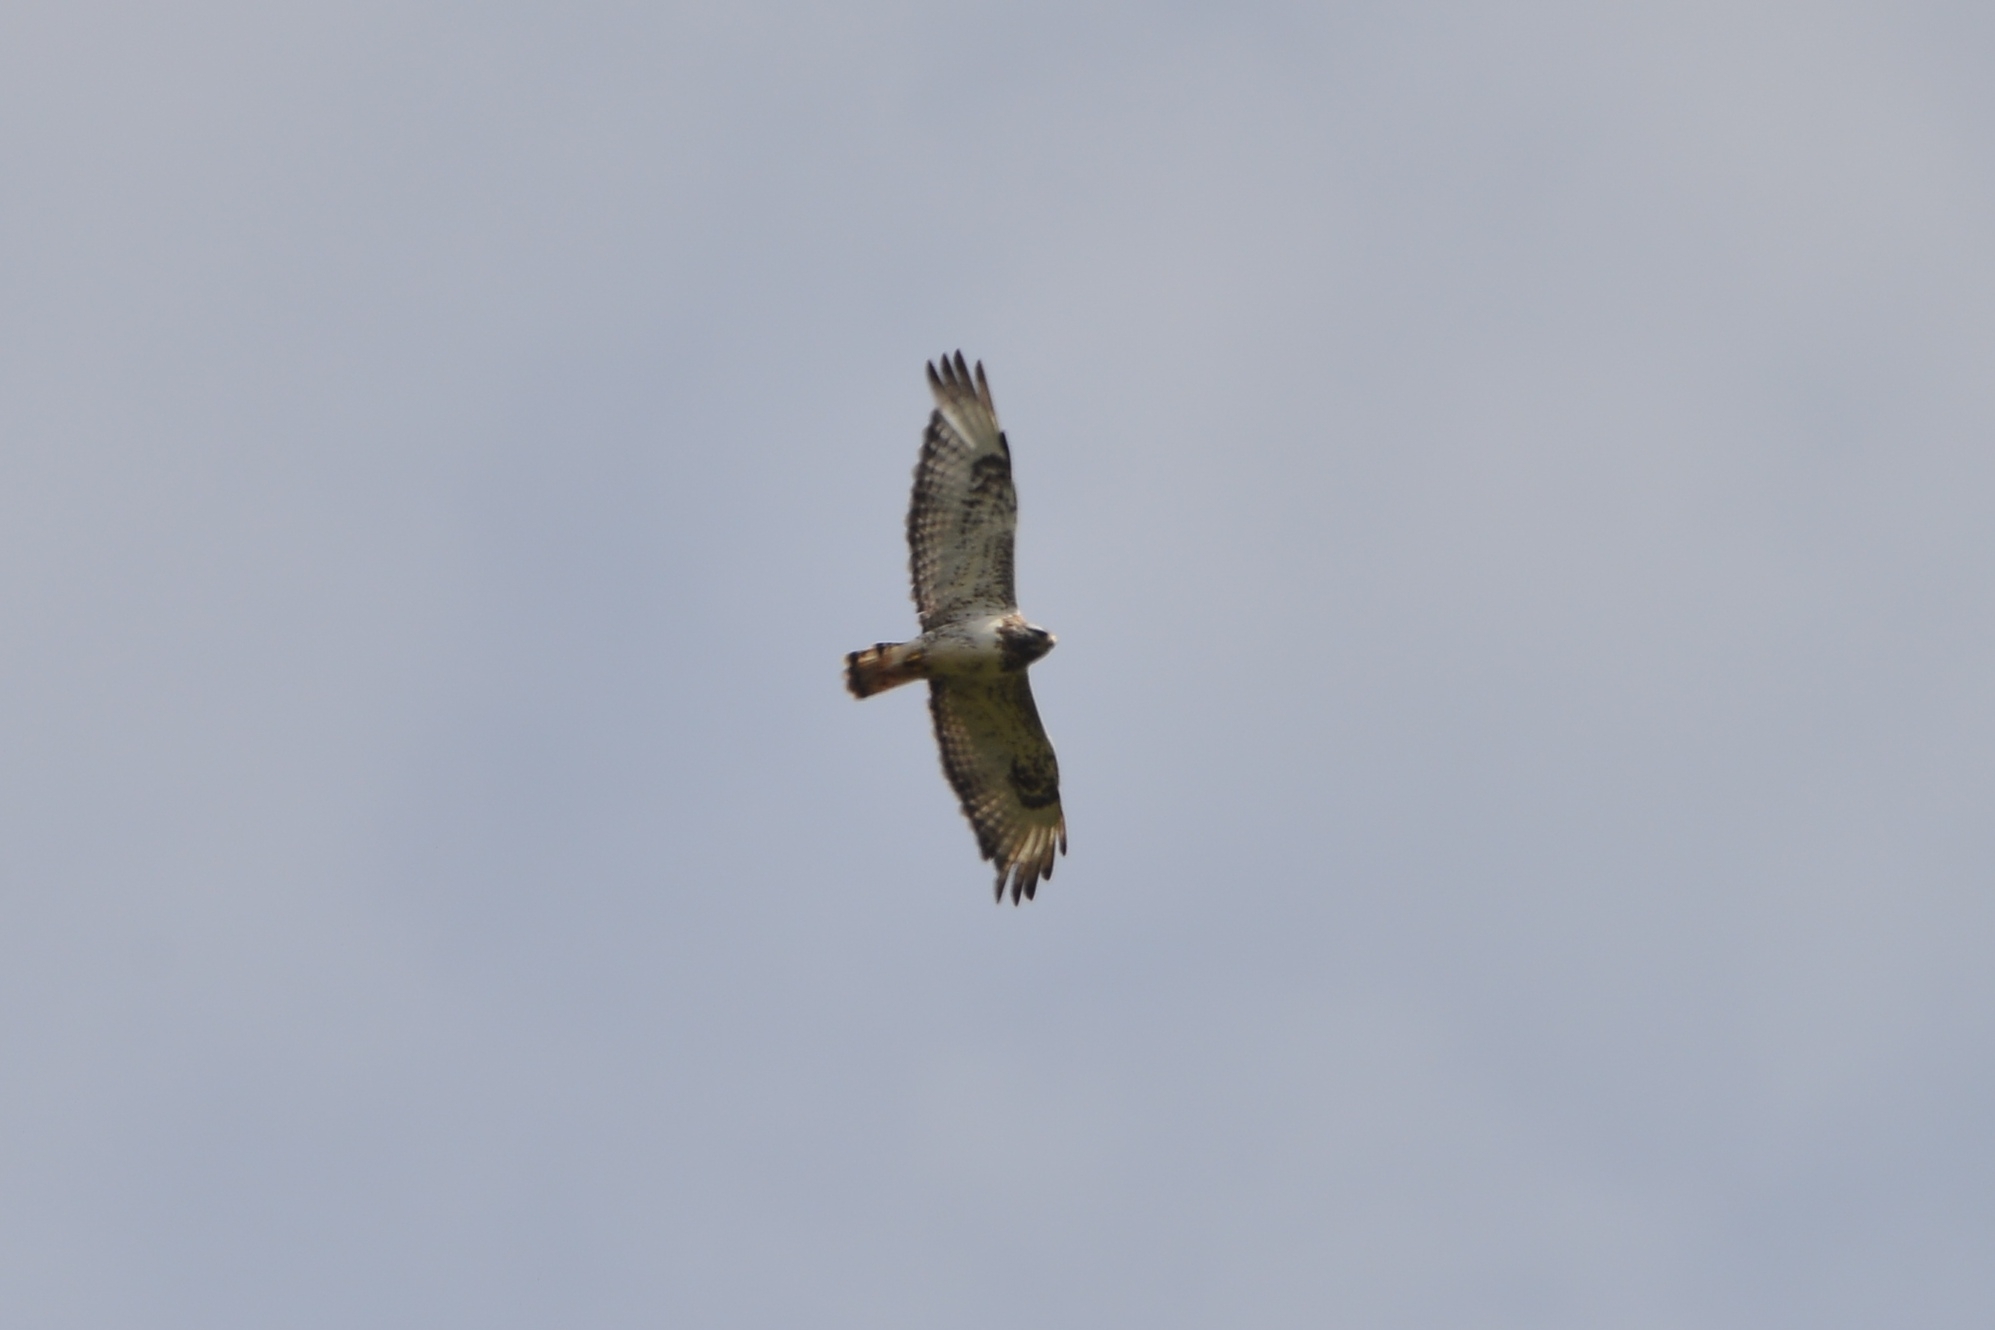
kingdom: Animalia
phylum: Chordata
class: Aves
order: Accipitriformes
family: Accipitridae
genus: Buteo
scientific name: Buteo lagopus
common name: Rough-legged buzzard
